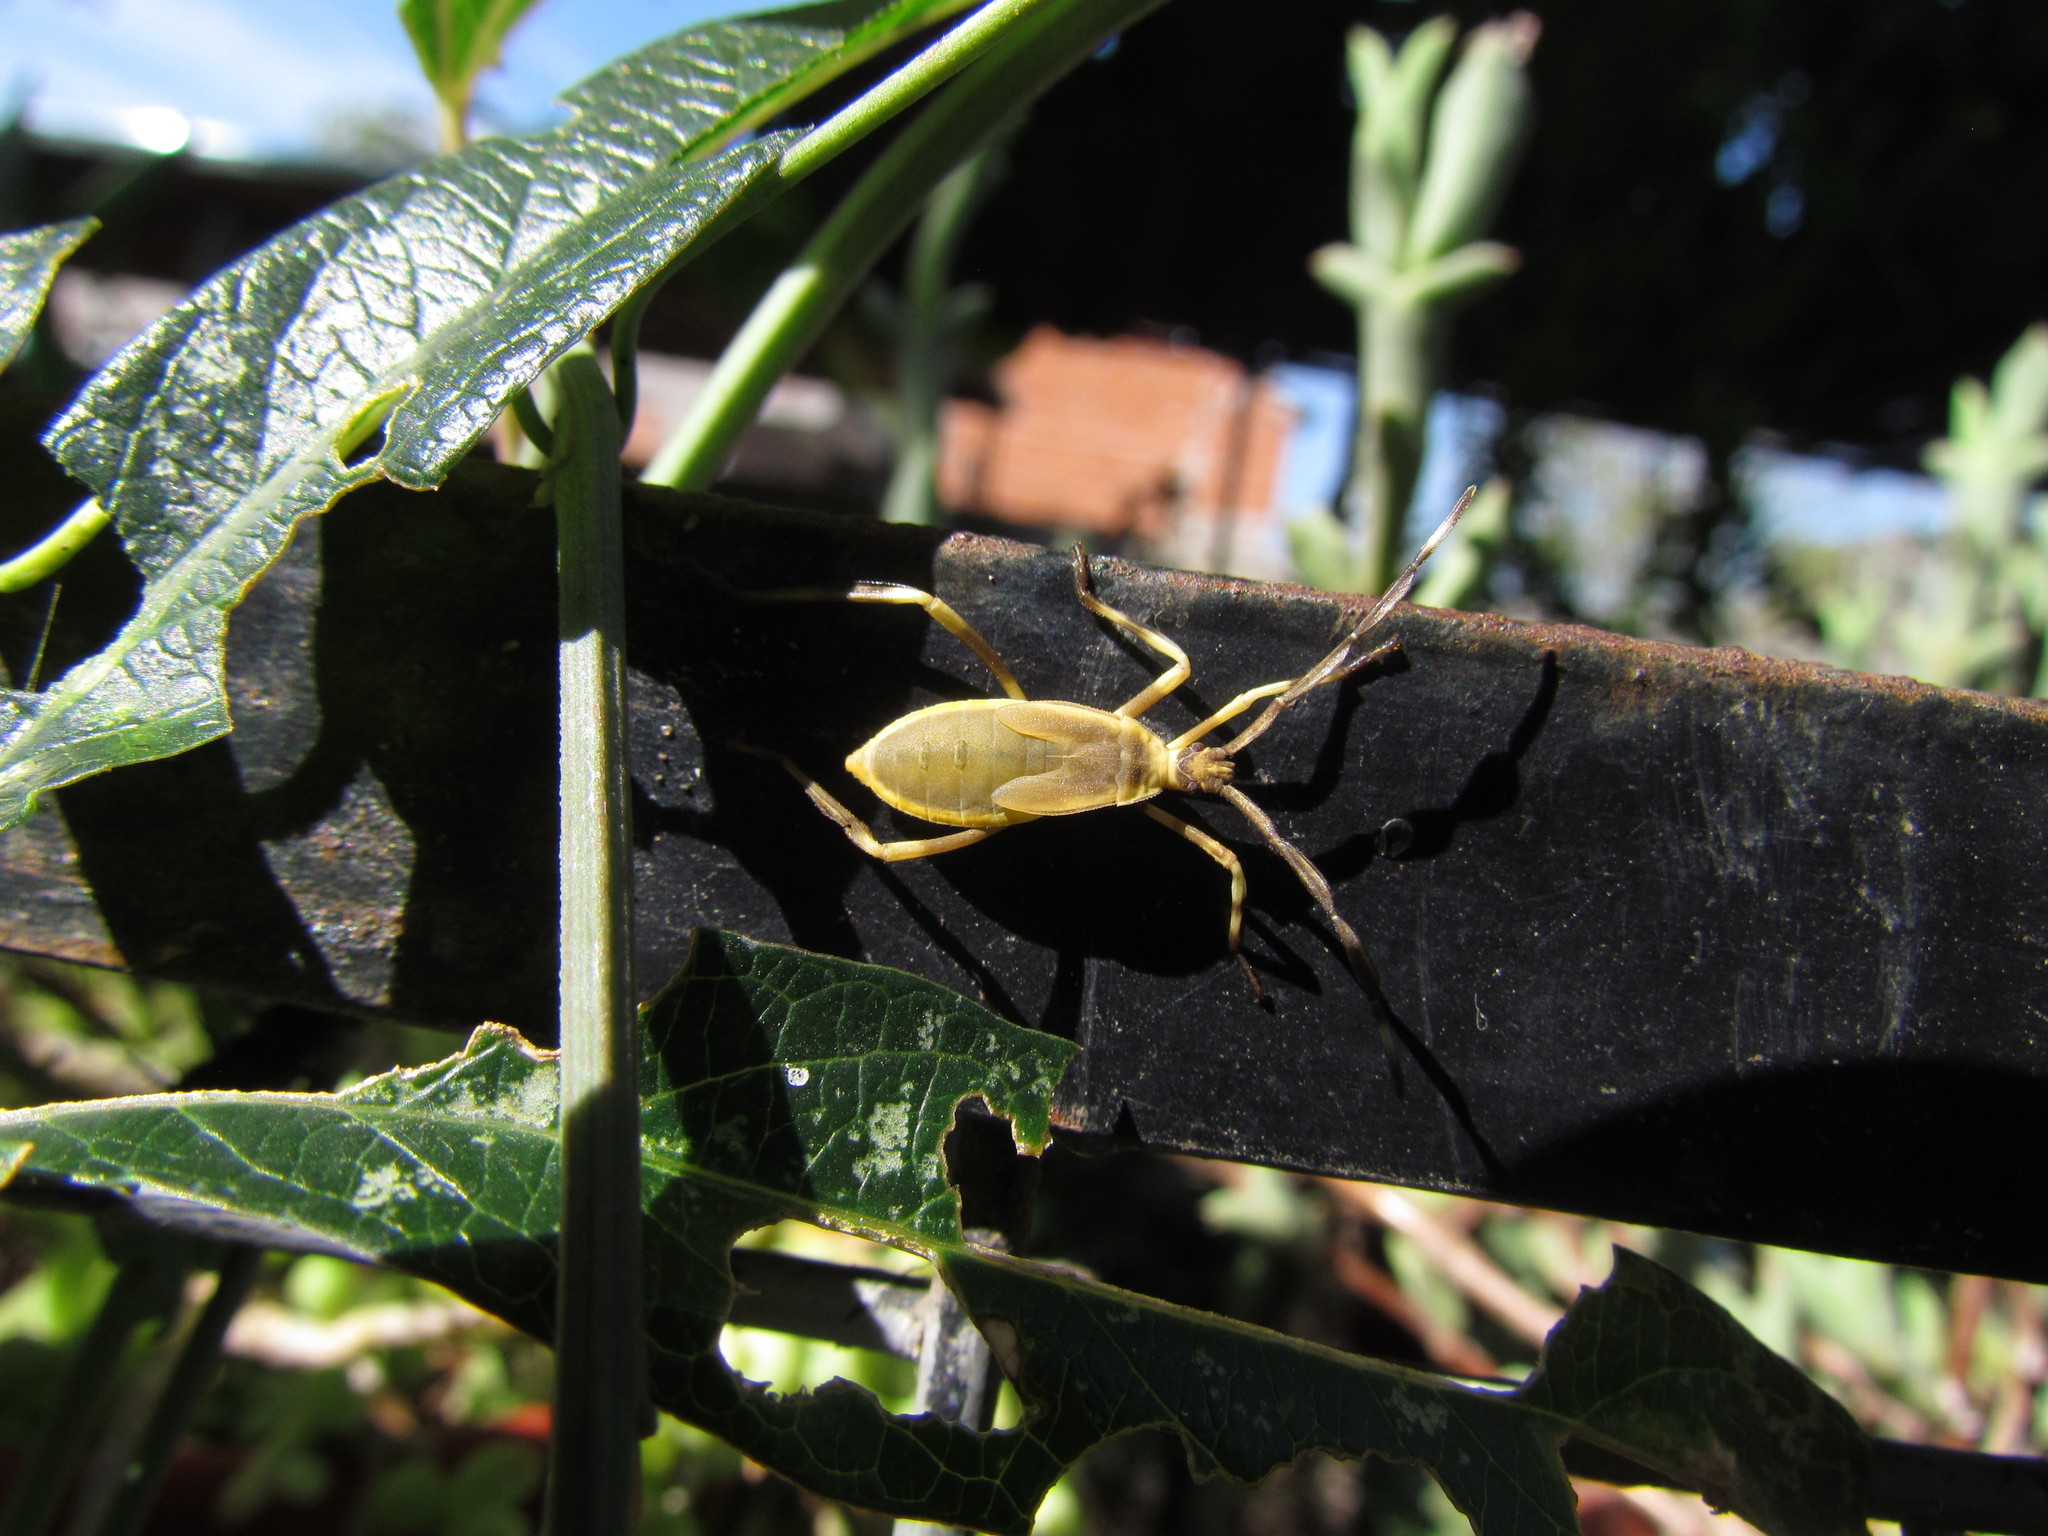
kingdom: Animalia
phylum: Arthropoda
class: Insecta
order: Hemiptera
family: Coreidae
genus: Holhymenia
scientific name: Holhymenia histrio
